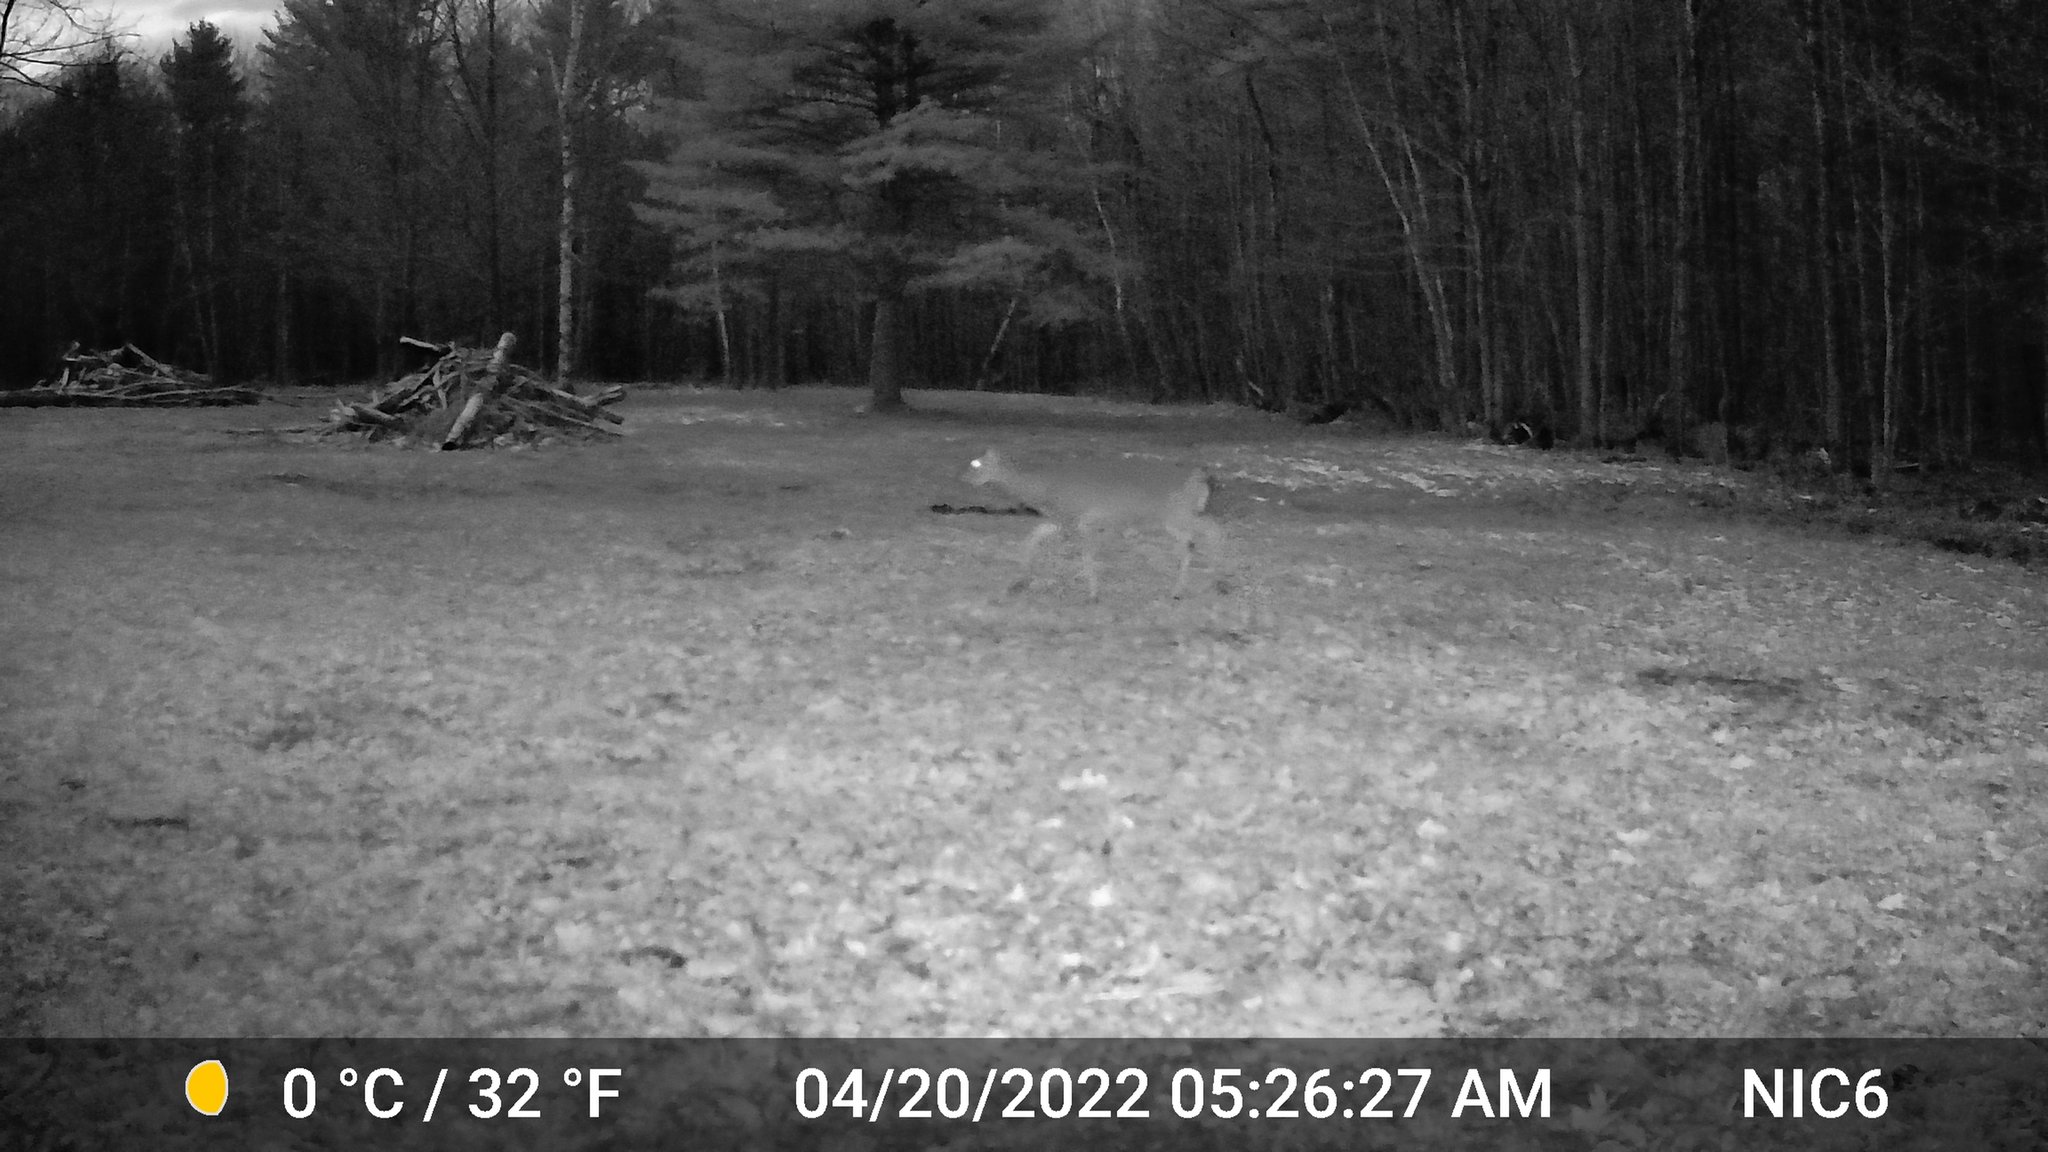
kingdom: Animalia
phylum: Chordata
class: Mammalia
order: Artiodactyla
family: Cervidae
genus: Odocoileus
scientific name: Odocoileus virginianus
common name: White-tailed deer
